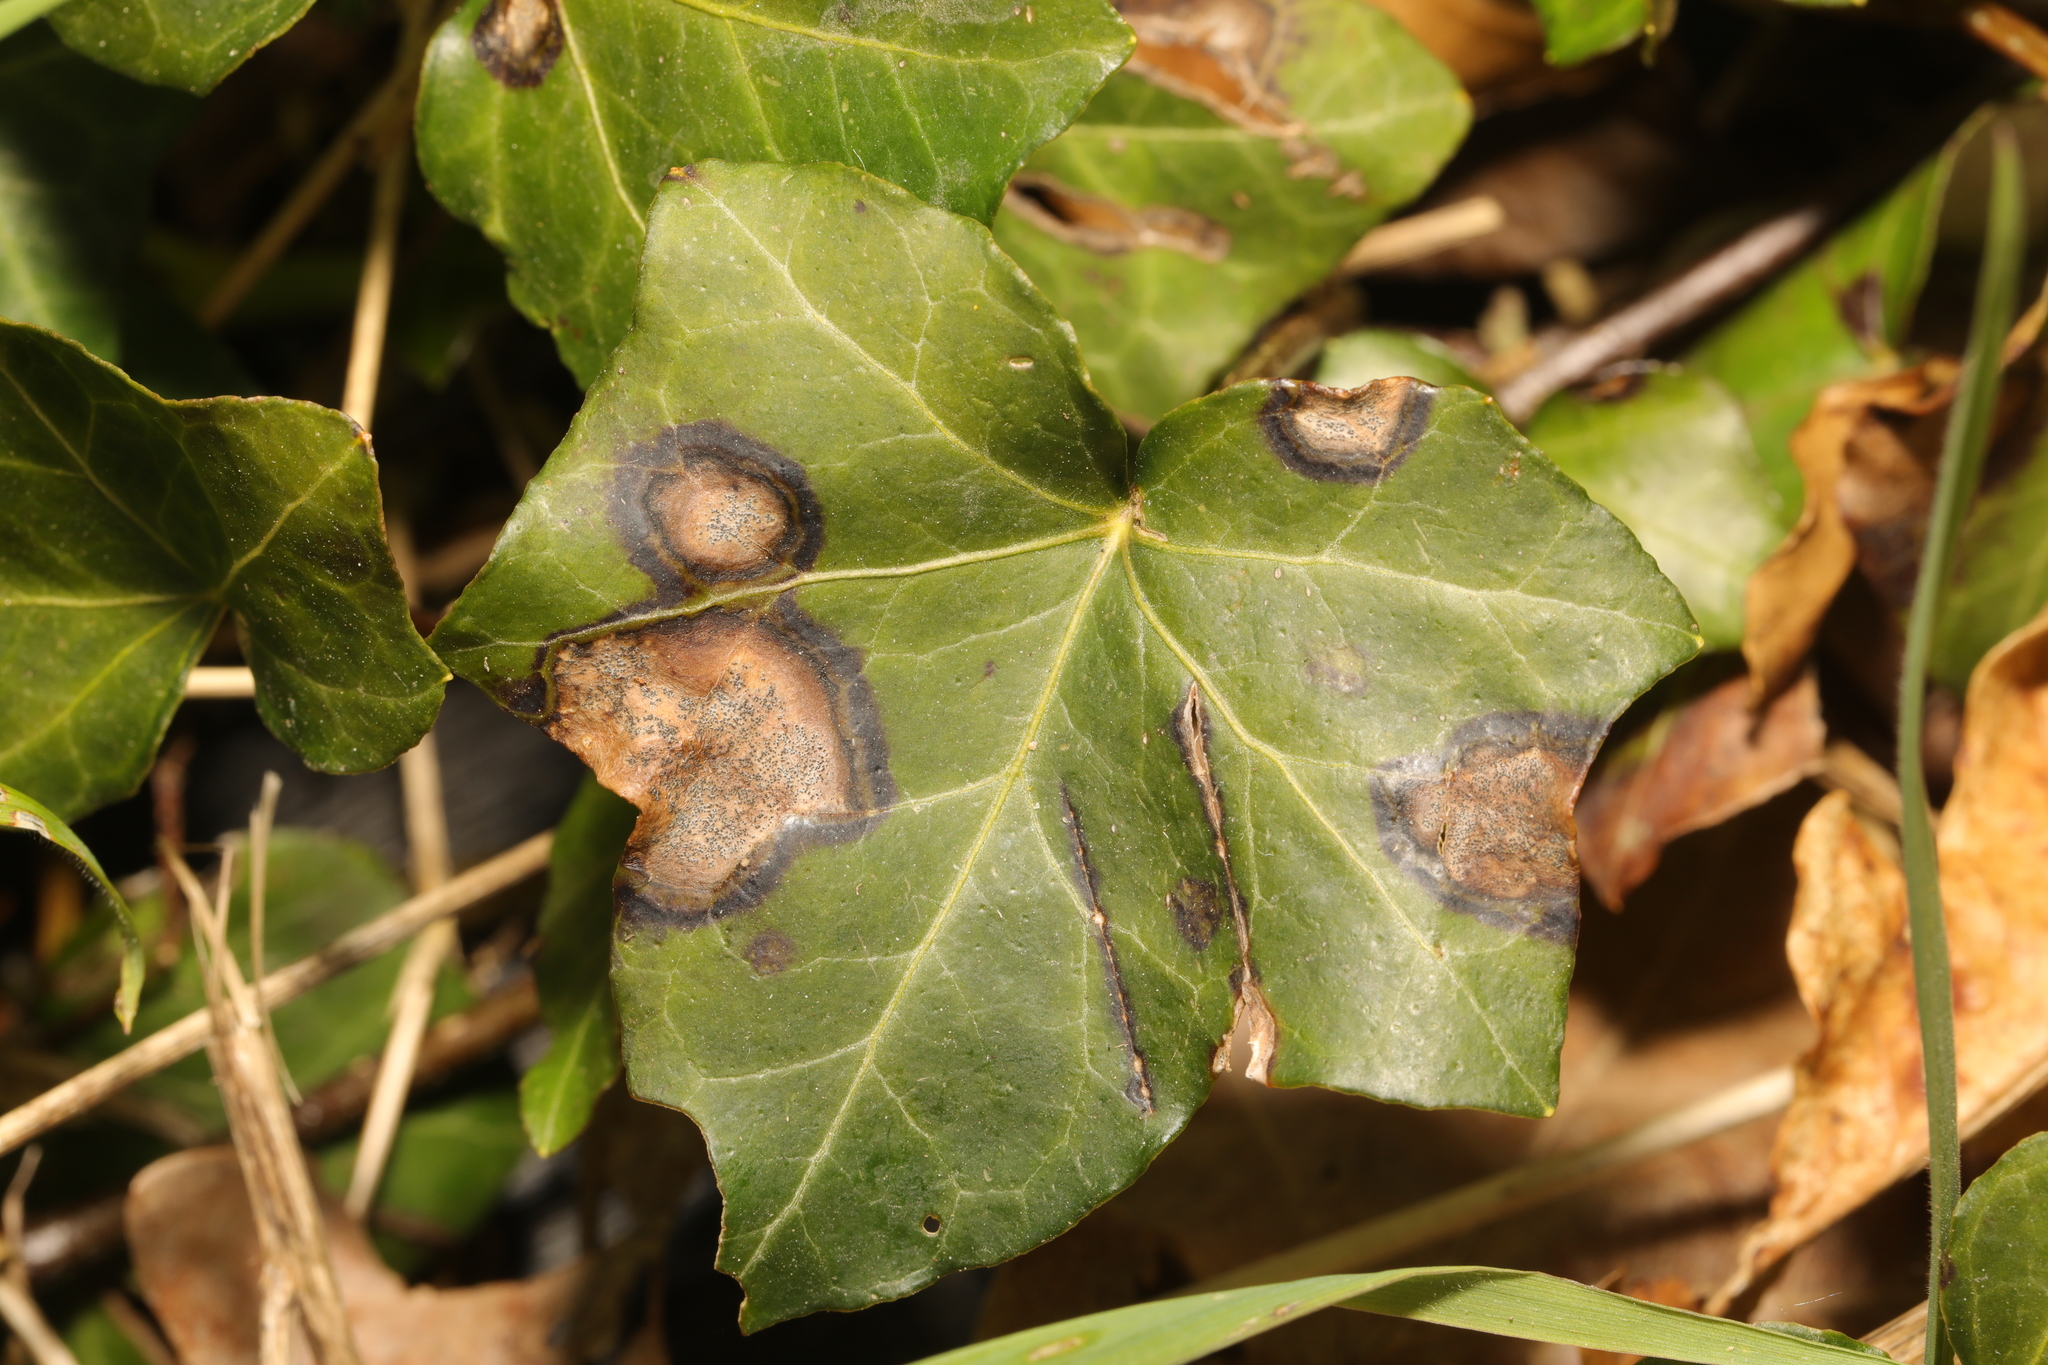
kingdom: Fungi
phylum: Ascomycota
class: Dothideomycetes
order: Pleosporales
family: Didymellaceae
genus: Boeremia
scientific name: Boeremia hedericola
